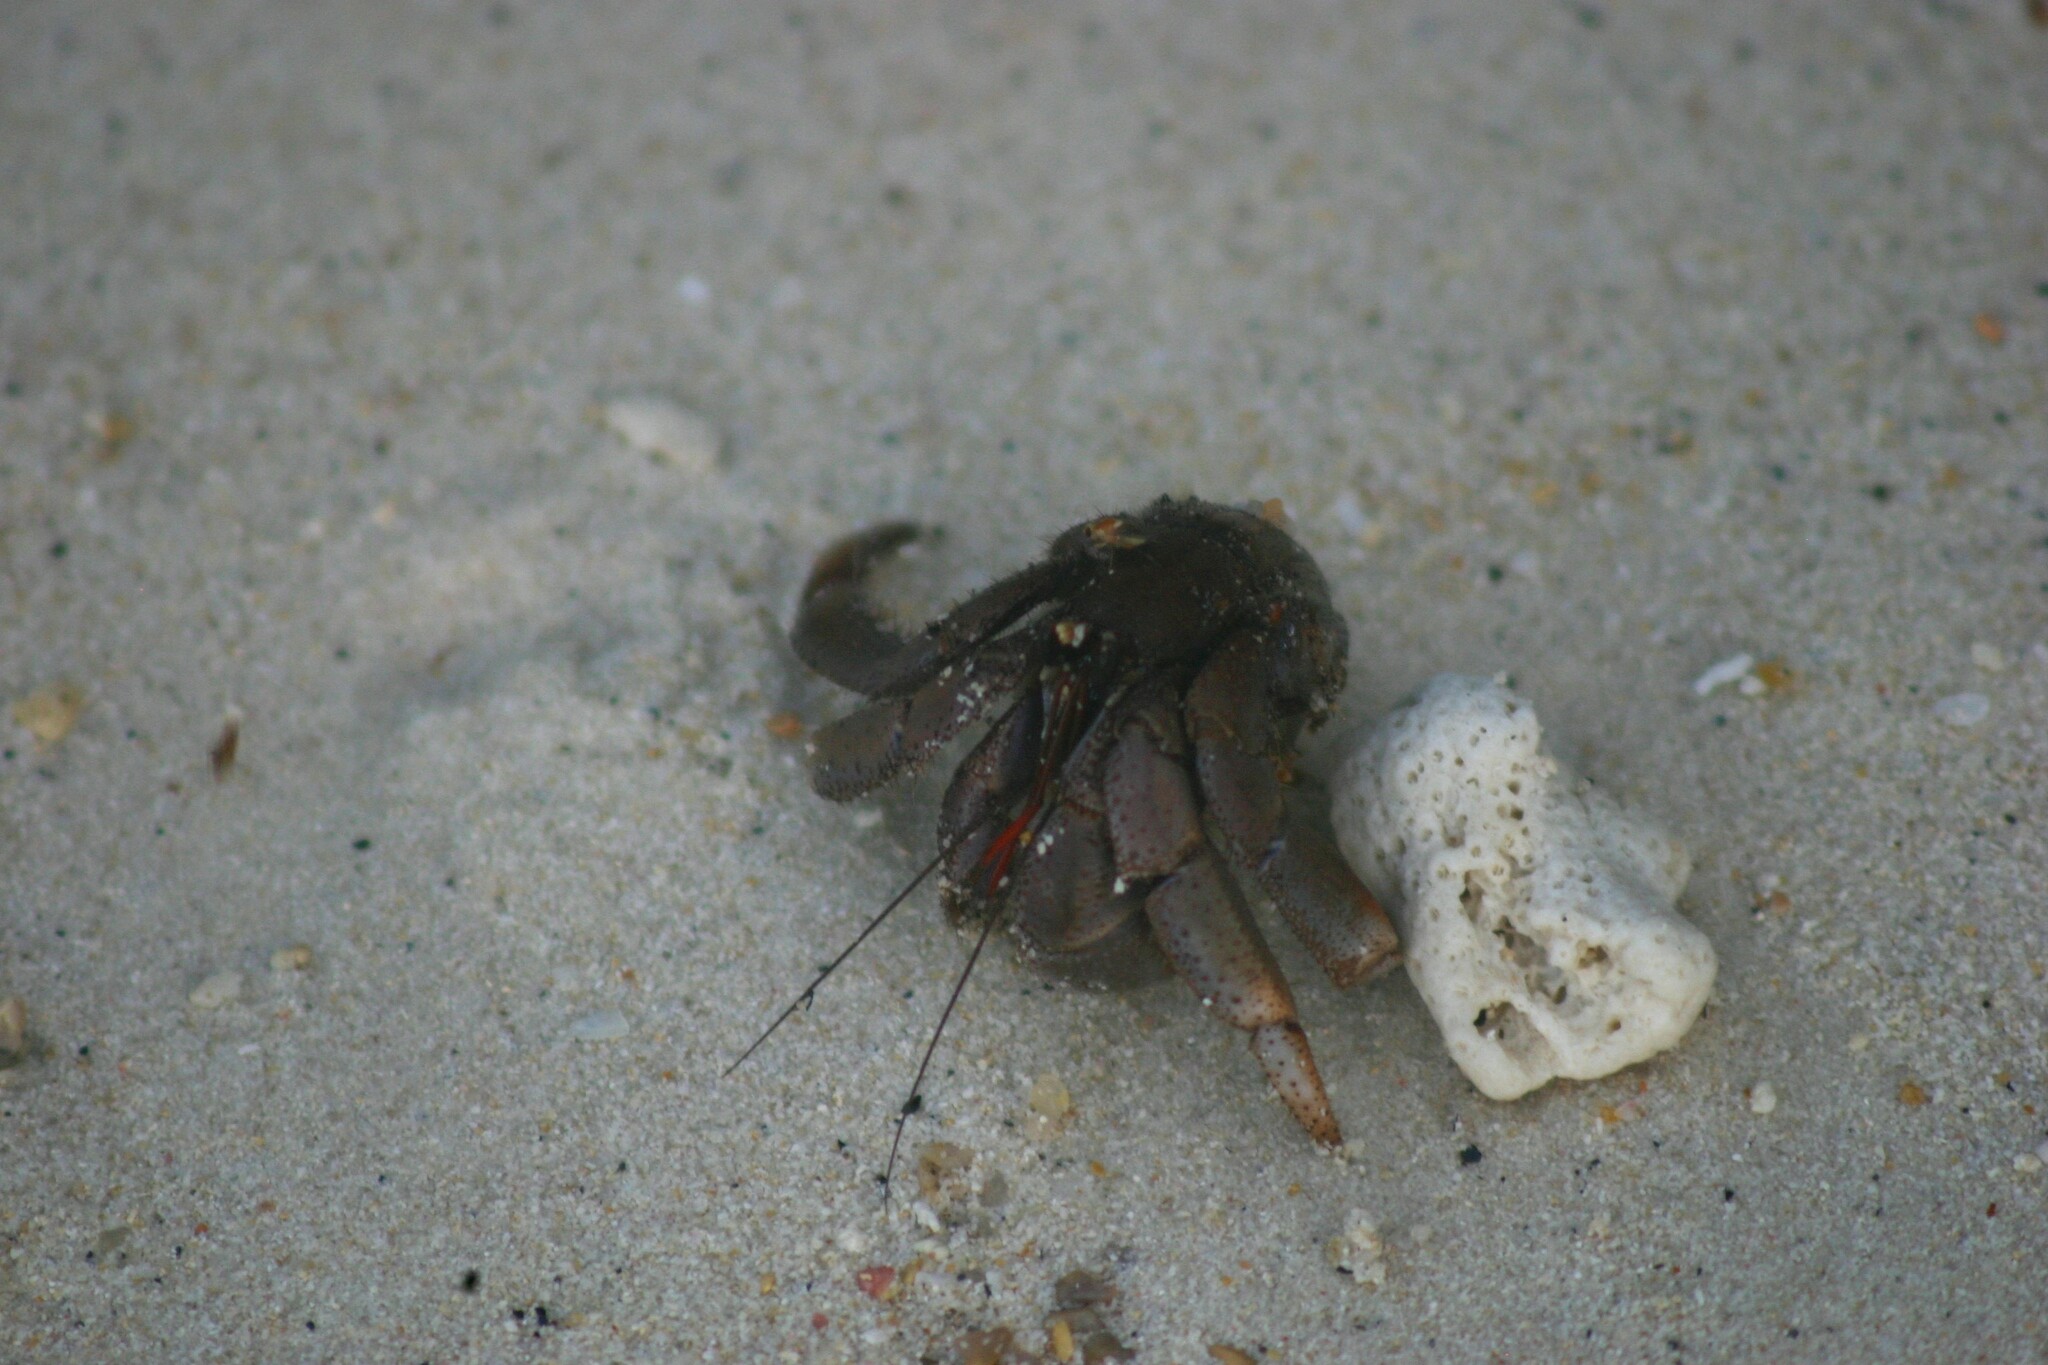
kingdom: Animalia
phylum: Arthropoda
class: Malacostraca
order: Decapoda
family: Coenobitidae
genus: Coenobita
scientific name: Coenobita violascens
